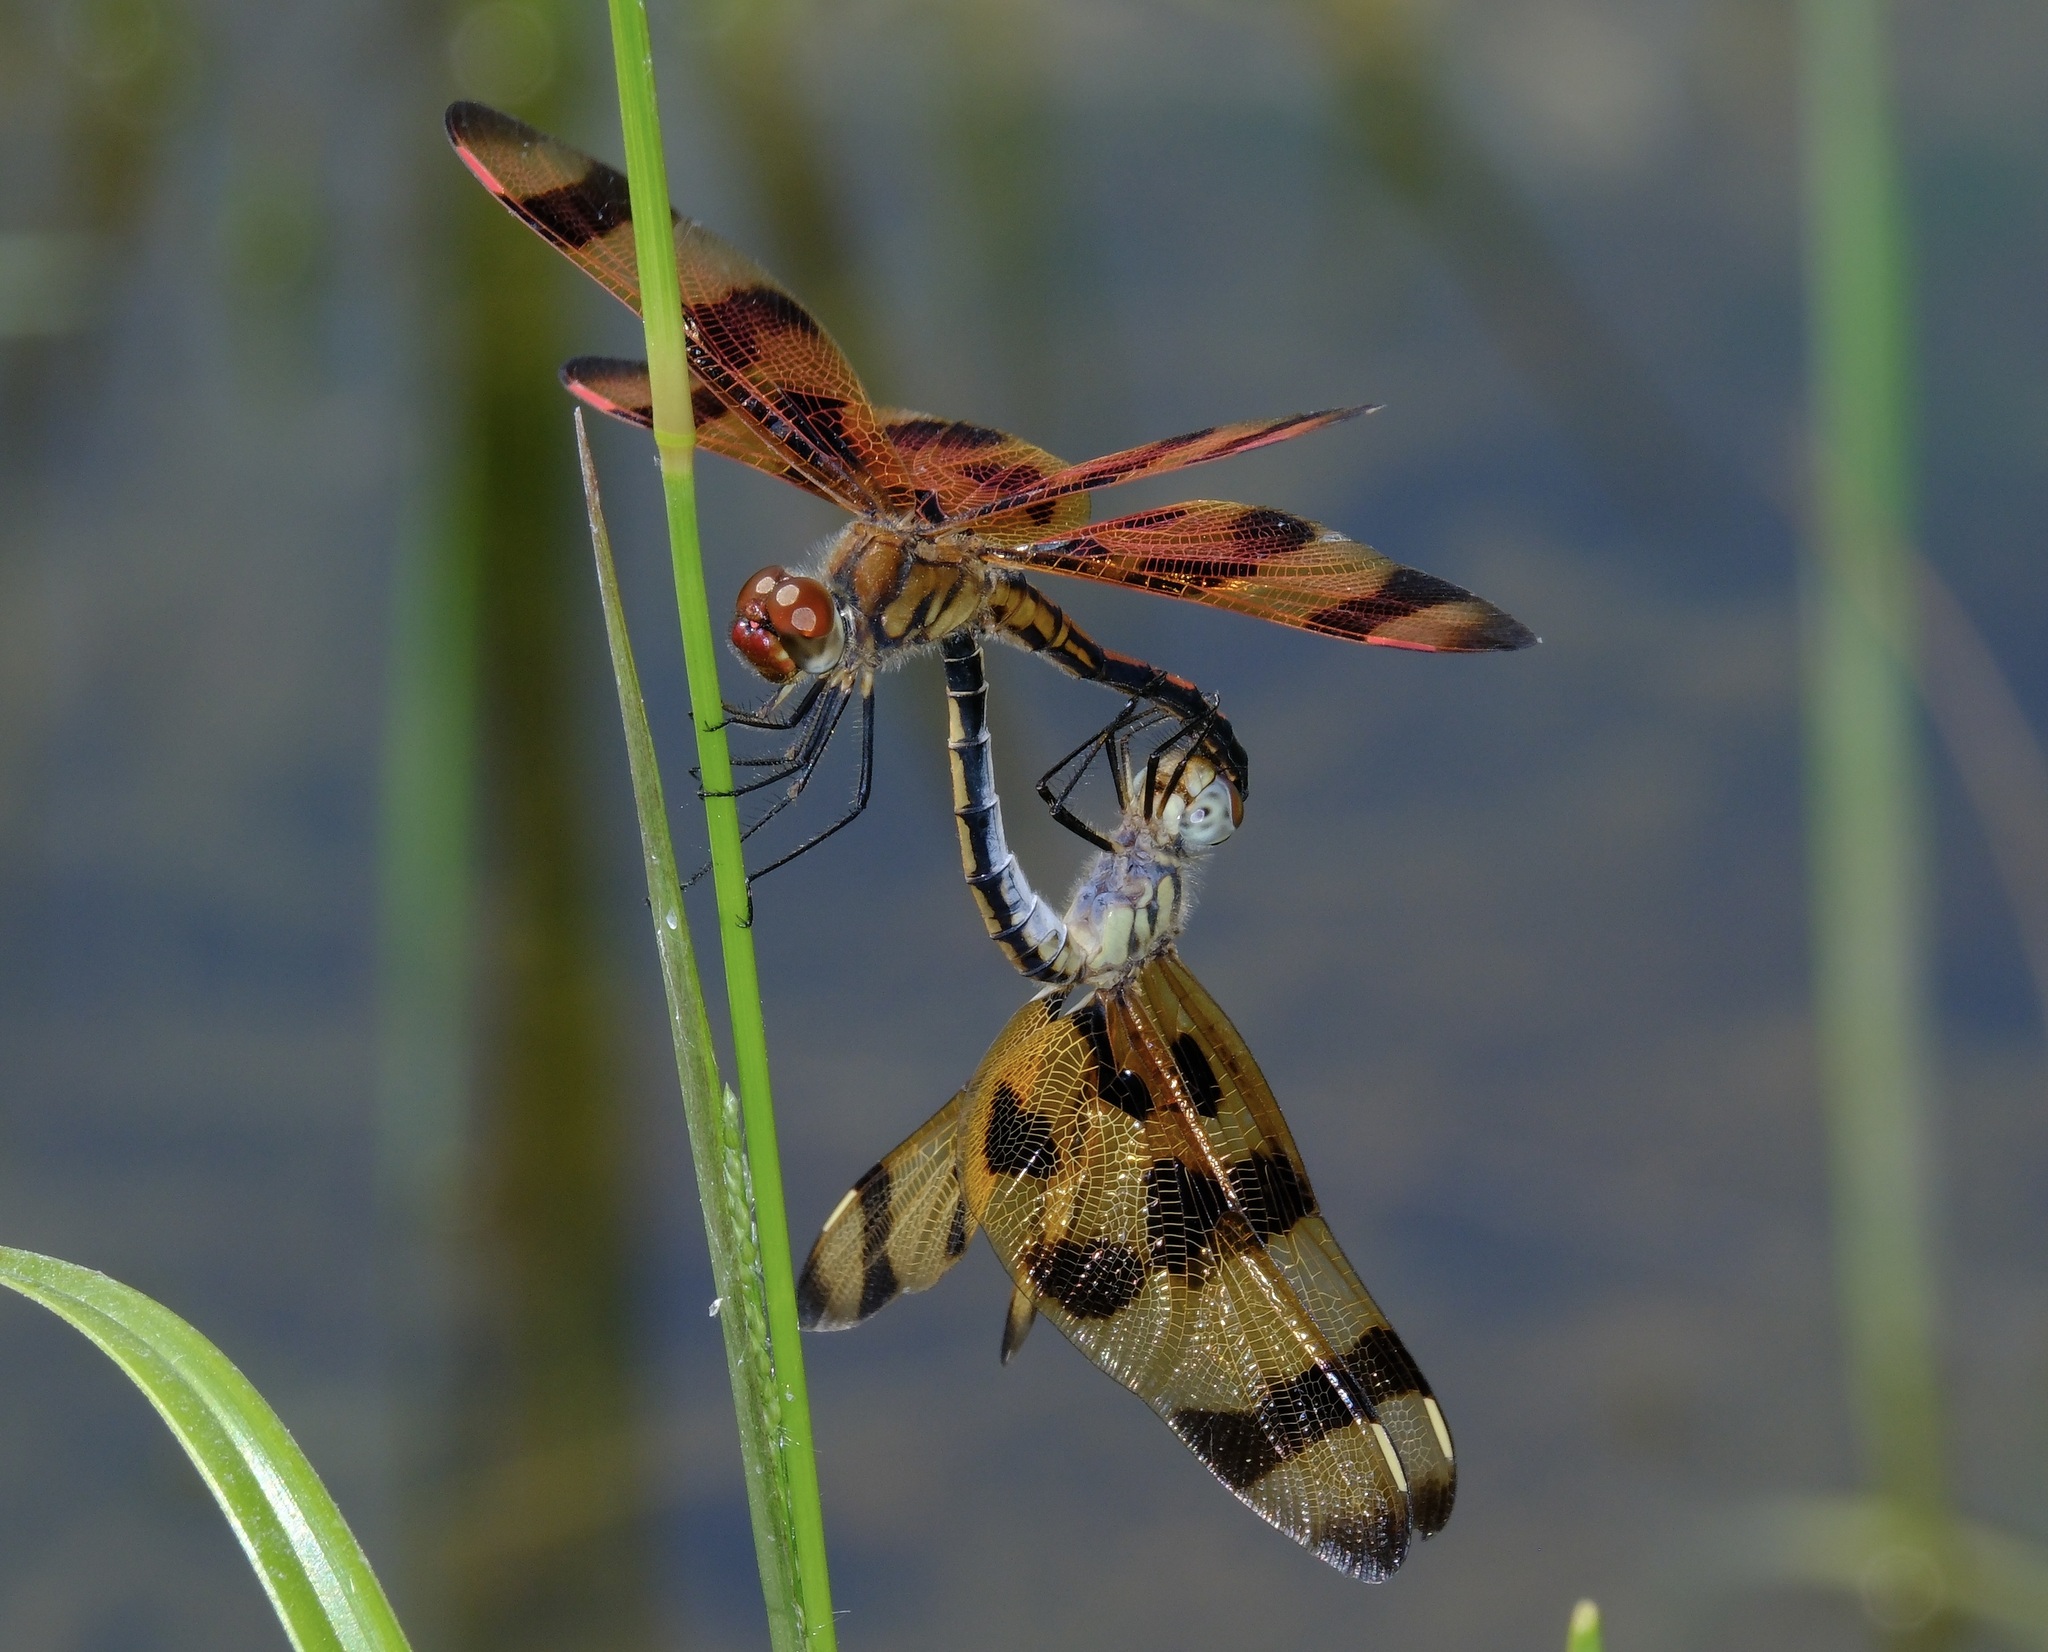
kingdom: Animalia
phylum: Arthropoda
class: Insecta
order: Odonata
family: Libellulidae
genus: Celithemis
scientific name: Celithemis eponina
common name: Halloween pennant
